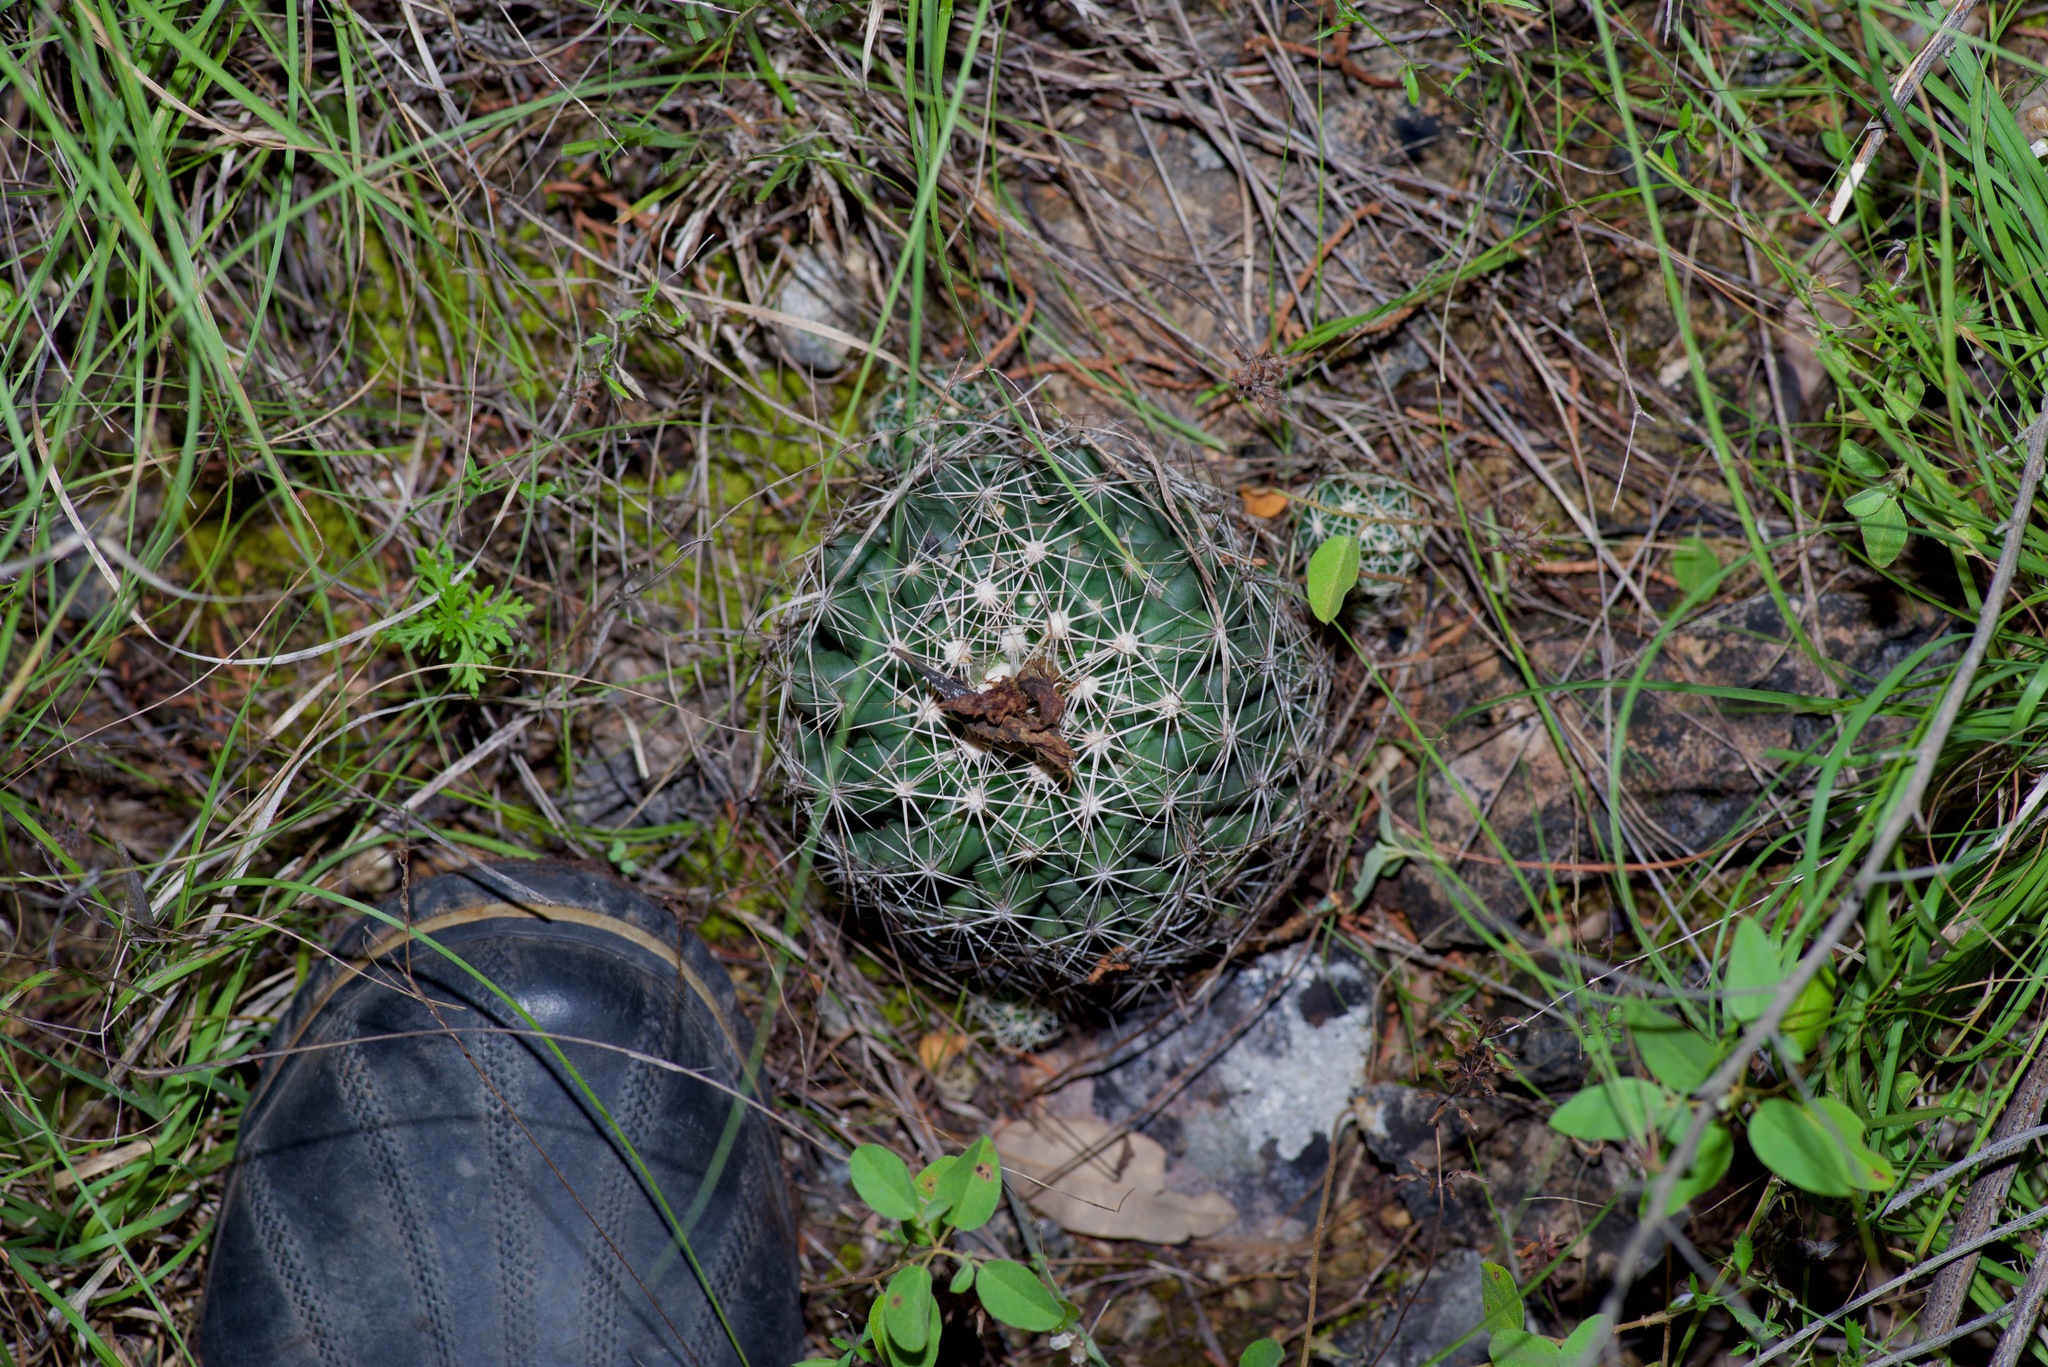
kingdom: Plantae
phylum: Tracheophyta
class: Magnoliopsida
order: Caryophyllales
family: Cactaceae
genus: Coryphantha
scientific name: Coryphantha sulcata
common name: Finger cactus
